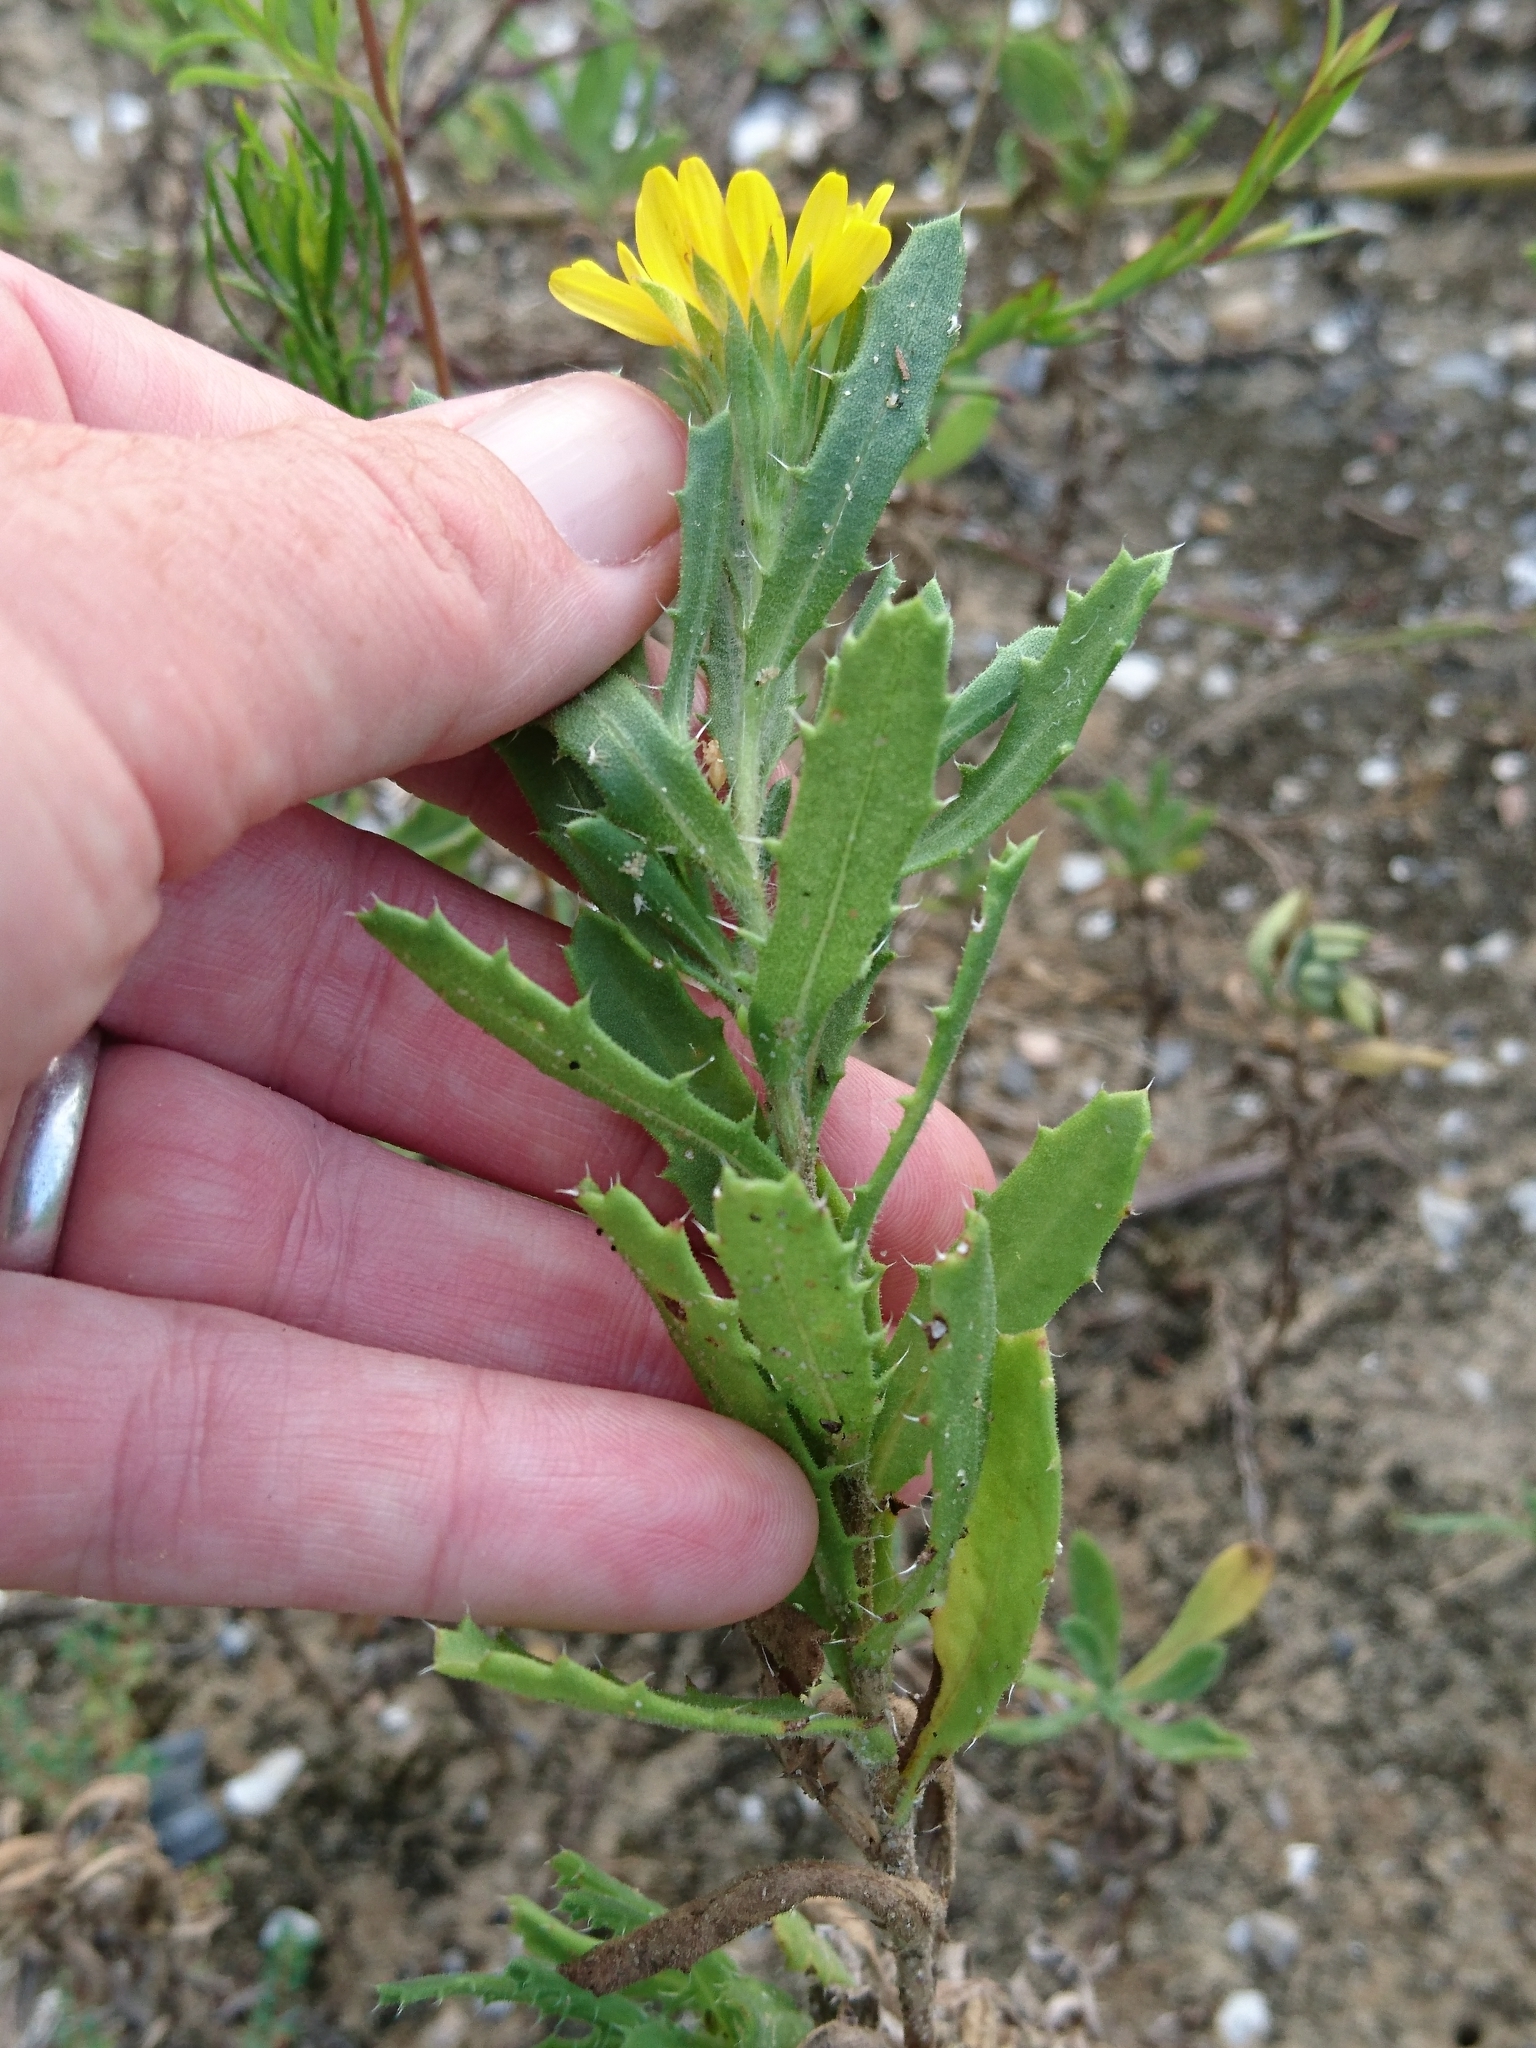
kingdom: Plantae
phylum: Tracheophyta
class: Magnoliopsida
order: Asterales
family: Asteraceae
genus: Rayjacksonia
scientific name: Rayjacksonia phyllocephala
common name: Gulf coast camphor daisy
